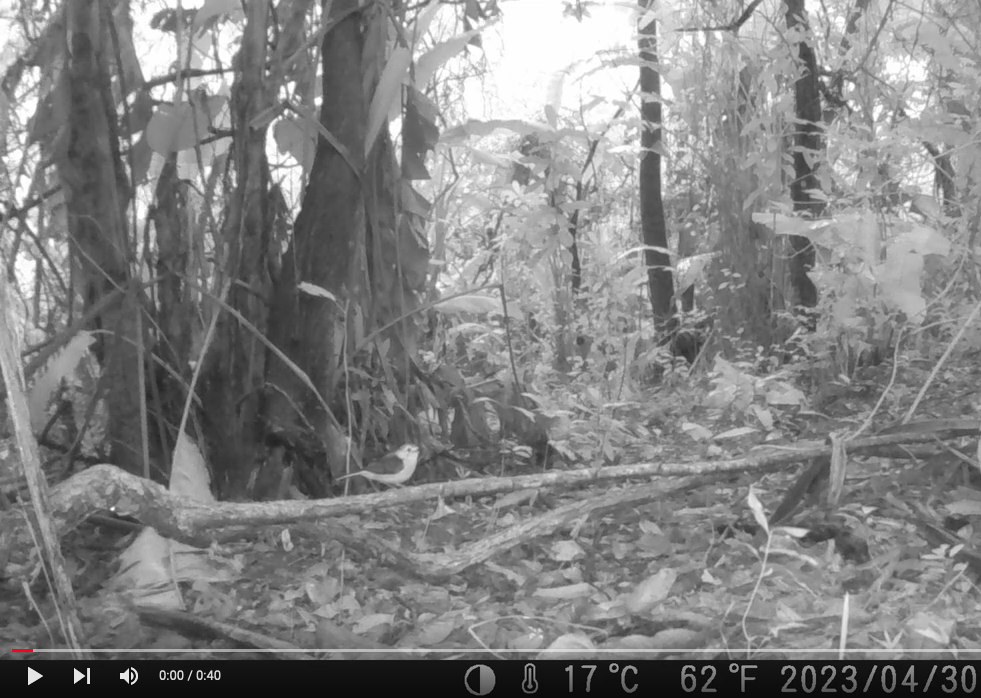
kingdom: Animalia
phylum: Chordata
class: Aves
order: Passeriformes
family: Muscicapidae
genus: Cossypha
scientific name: Cossypha natalensis
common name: Red-capped robin-chat
